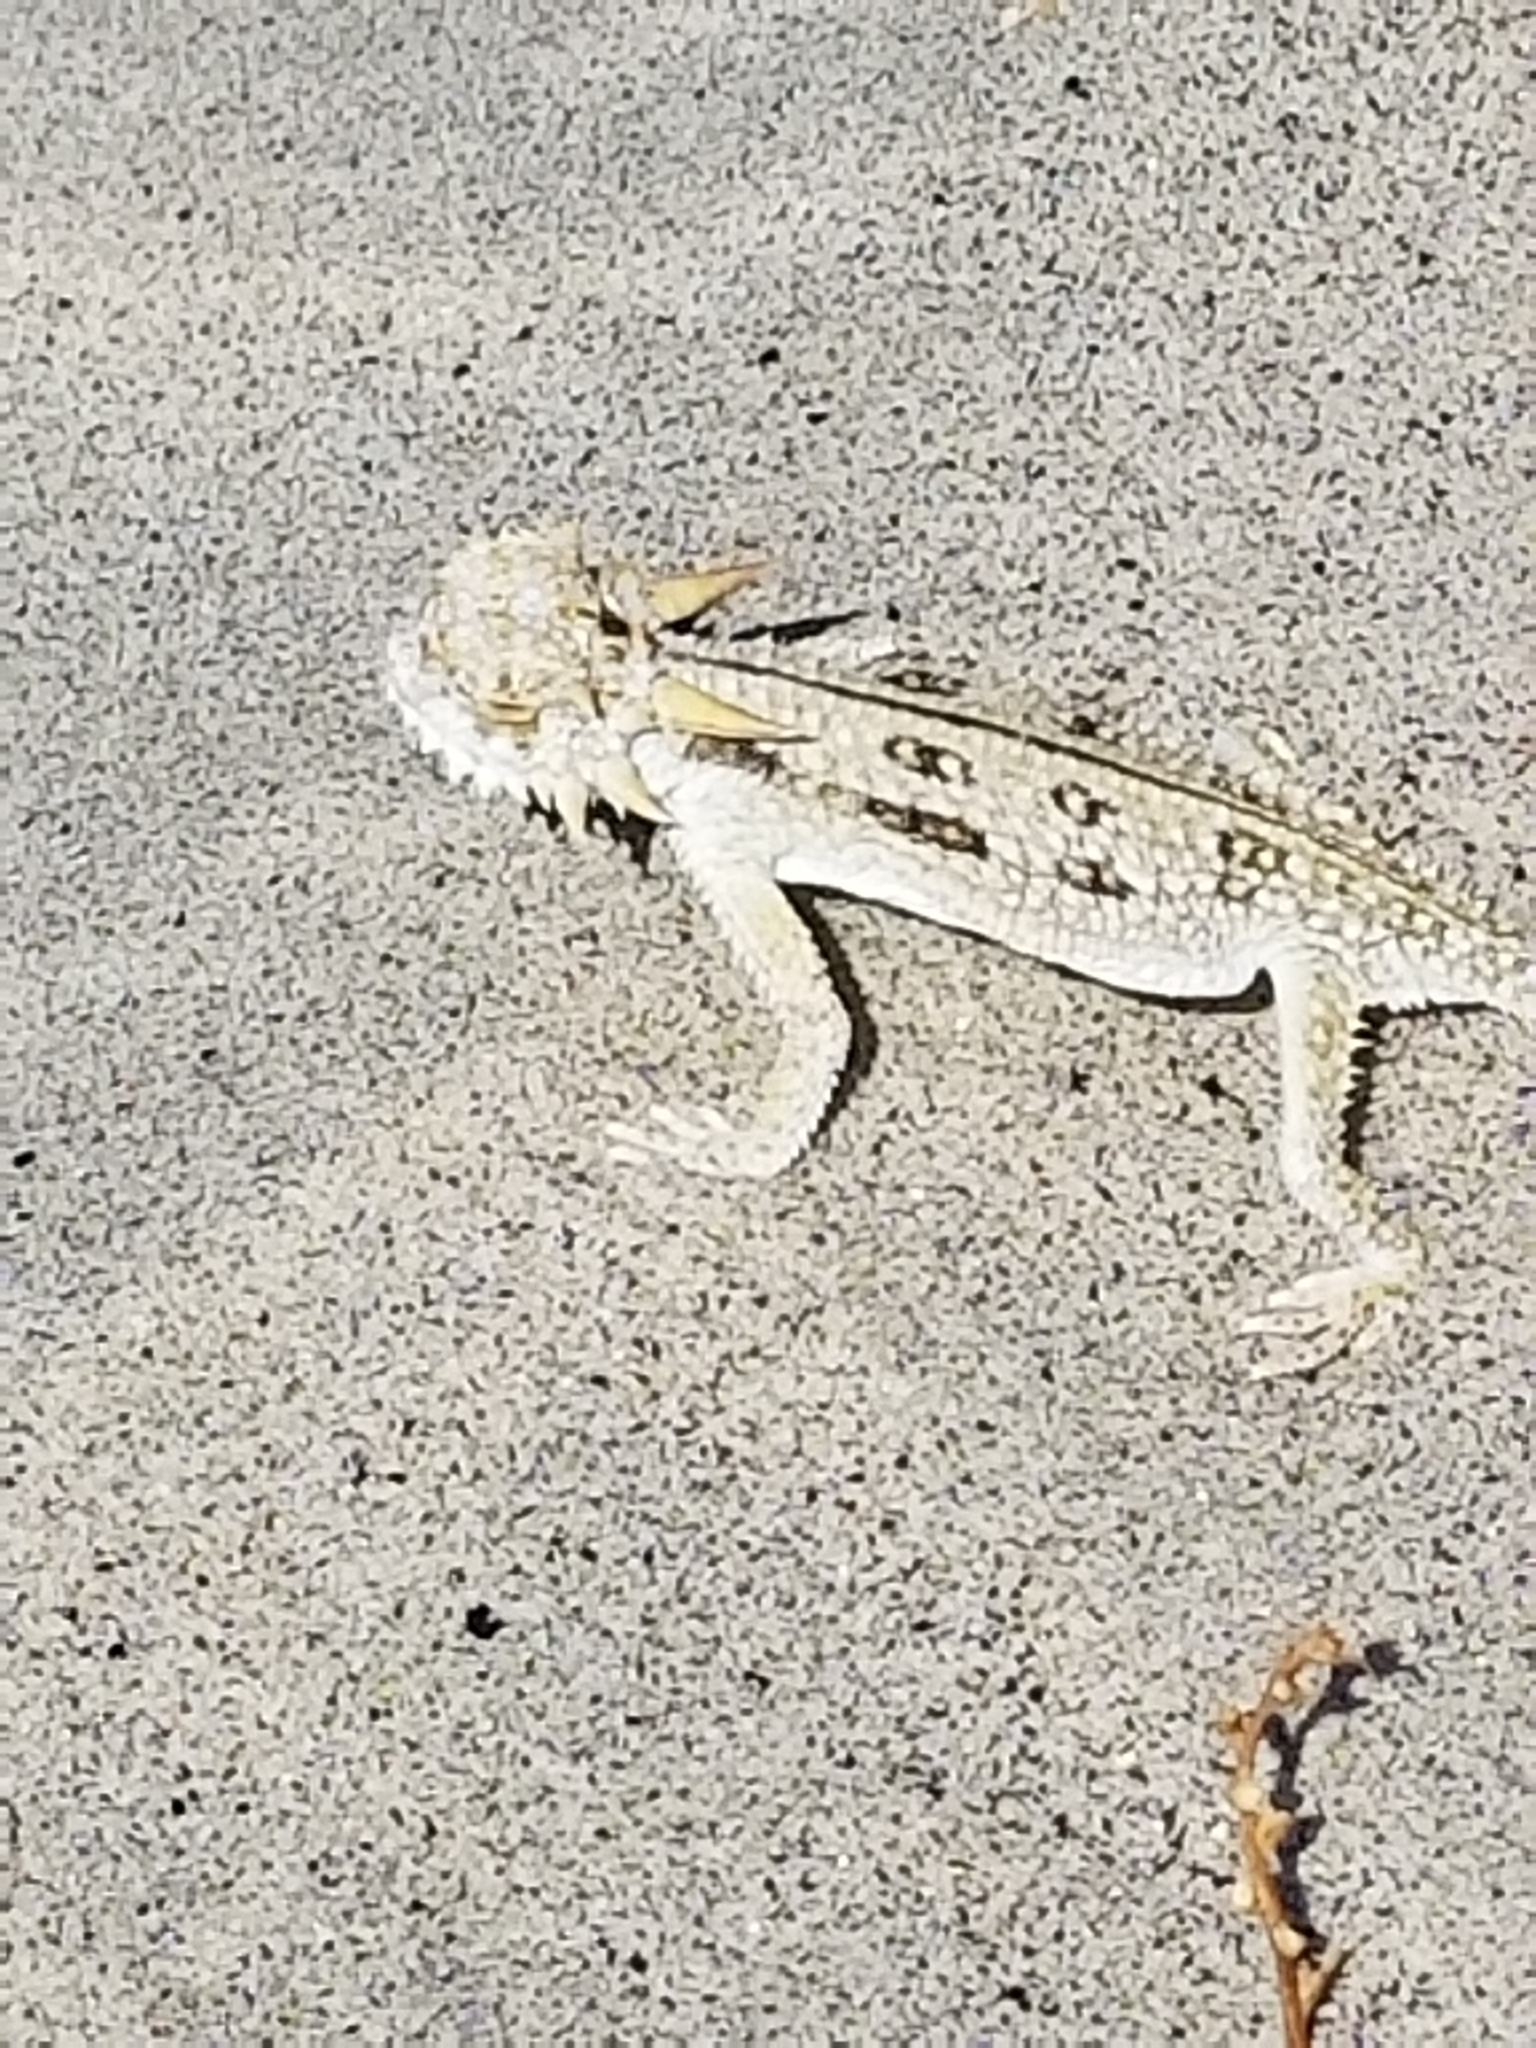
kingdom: Animalia
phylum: Chordata
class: Squamata
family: Phrynosomatidae
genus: Phrynosoma
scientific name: Phrynosoma mcallii
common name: Flat-tailed horned lizard
